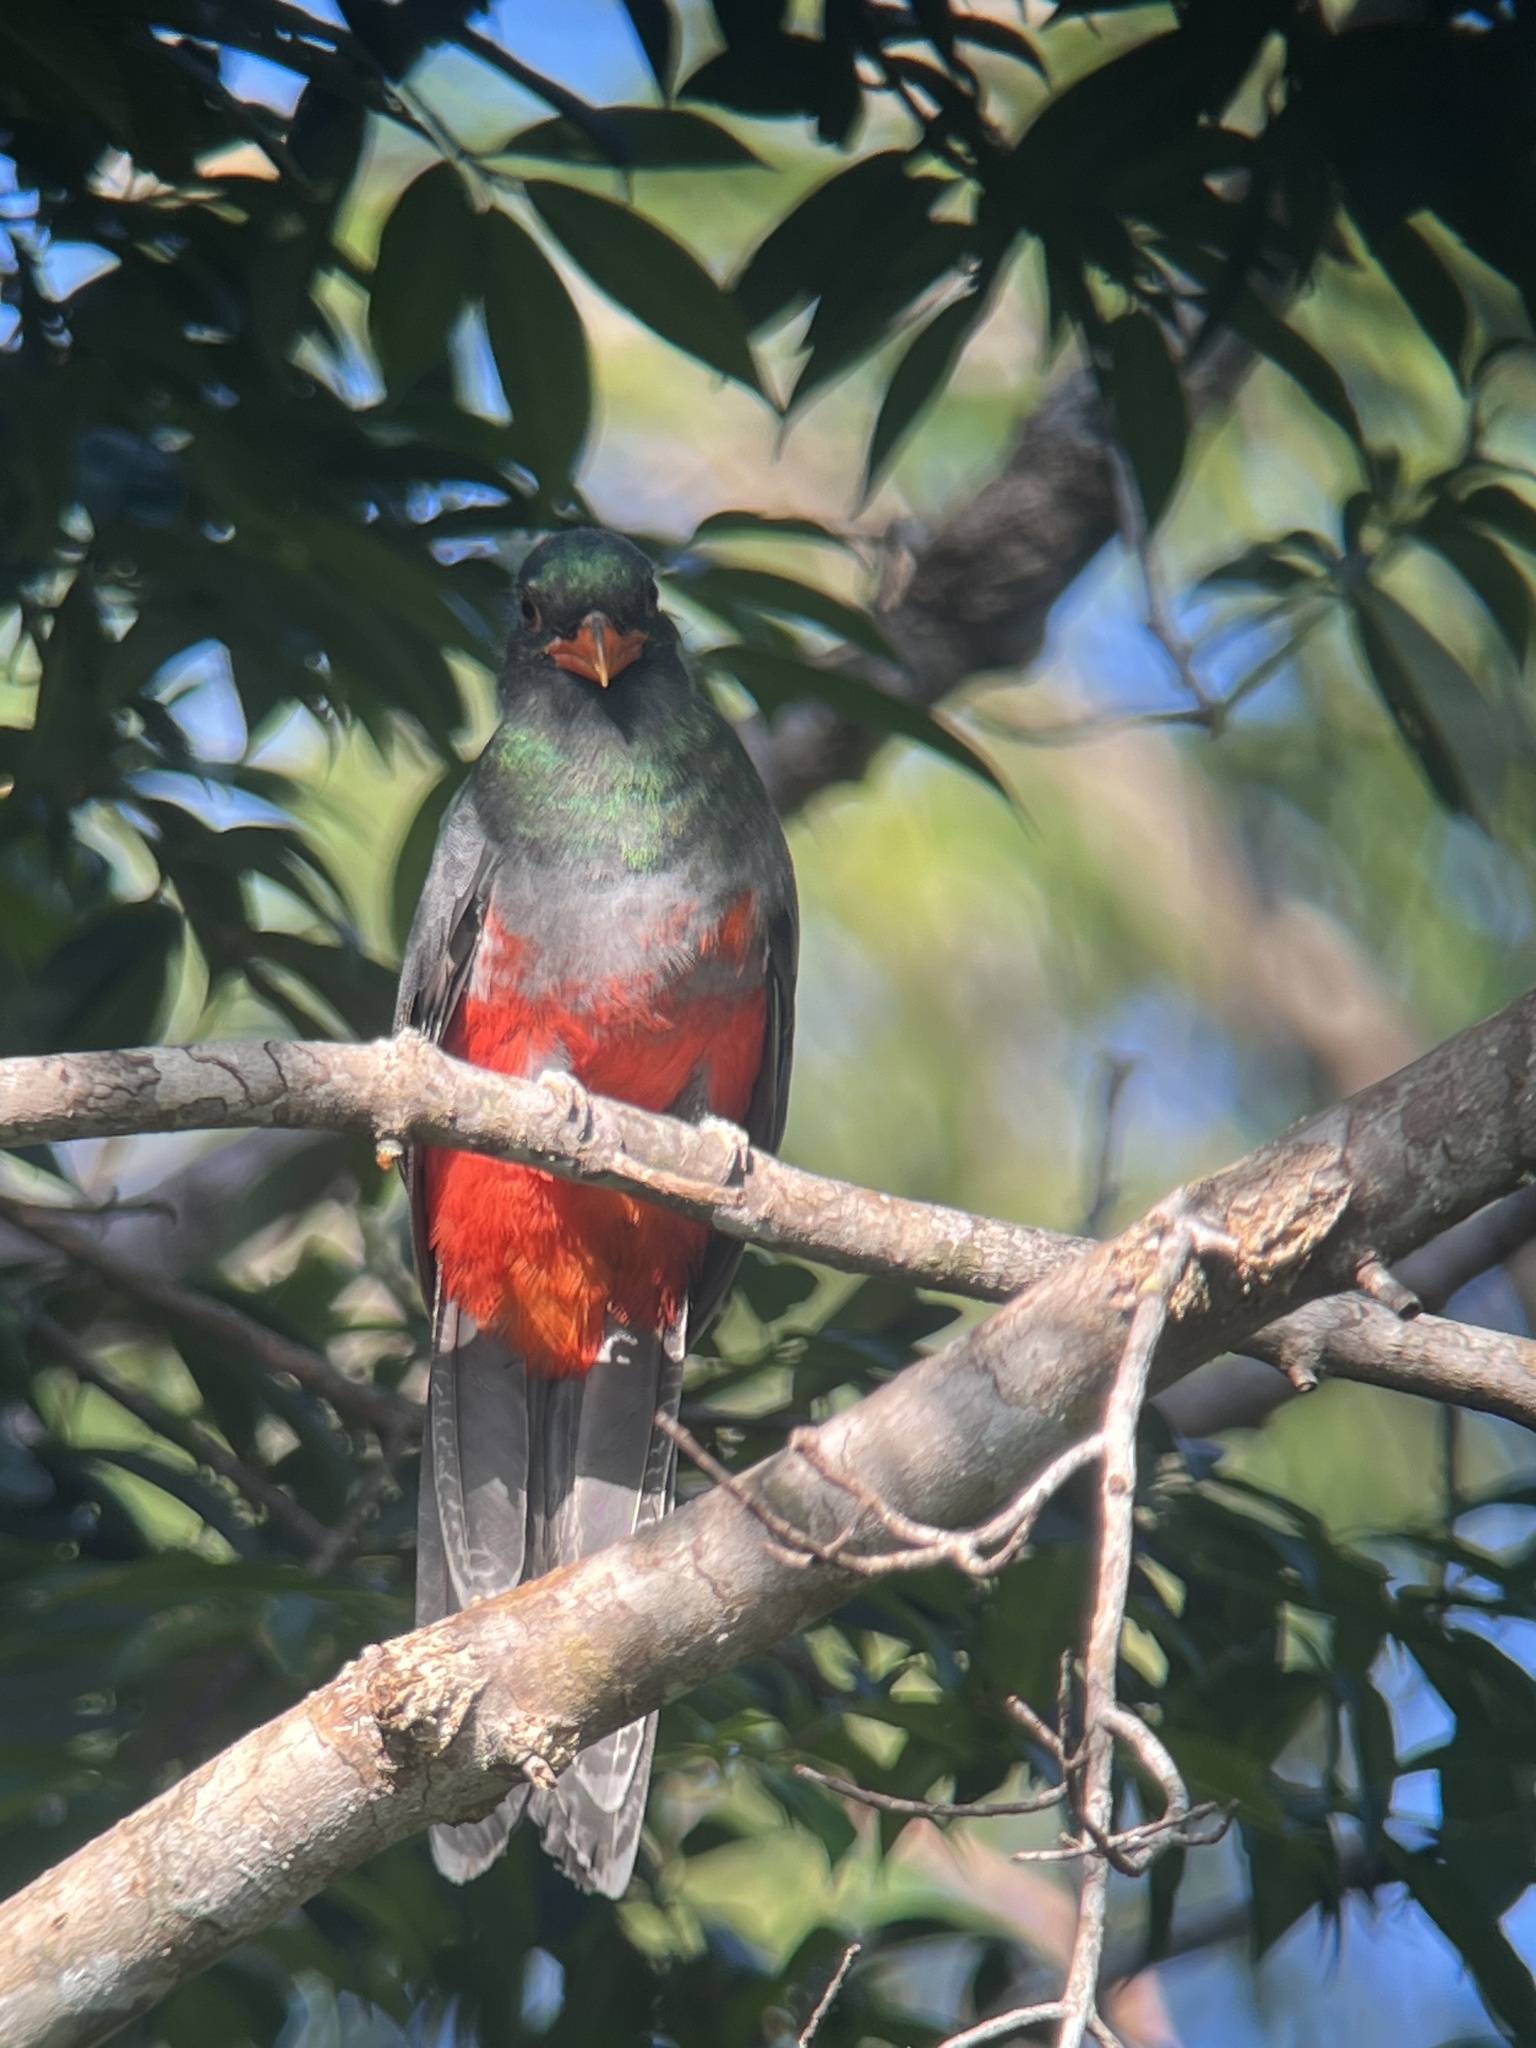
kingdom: Animalia
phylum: Chordata
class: Aves
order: Trogoniformes
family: Trogonidae
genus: Trogon
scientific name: Trogon massena
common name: Slaty-tailed trogon
